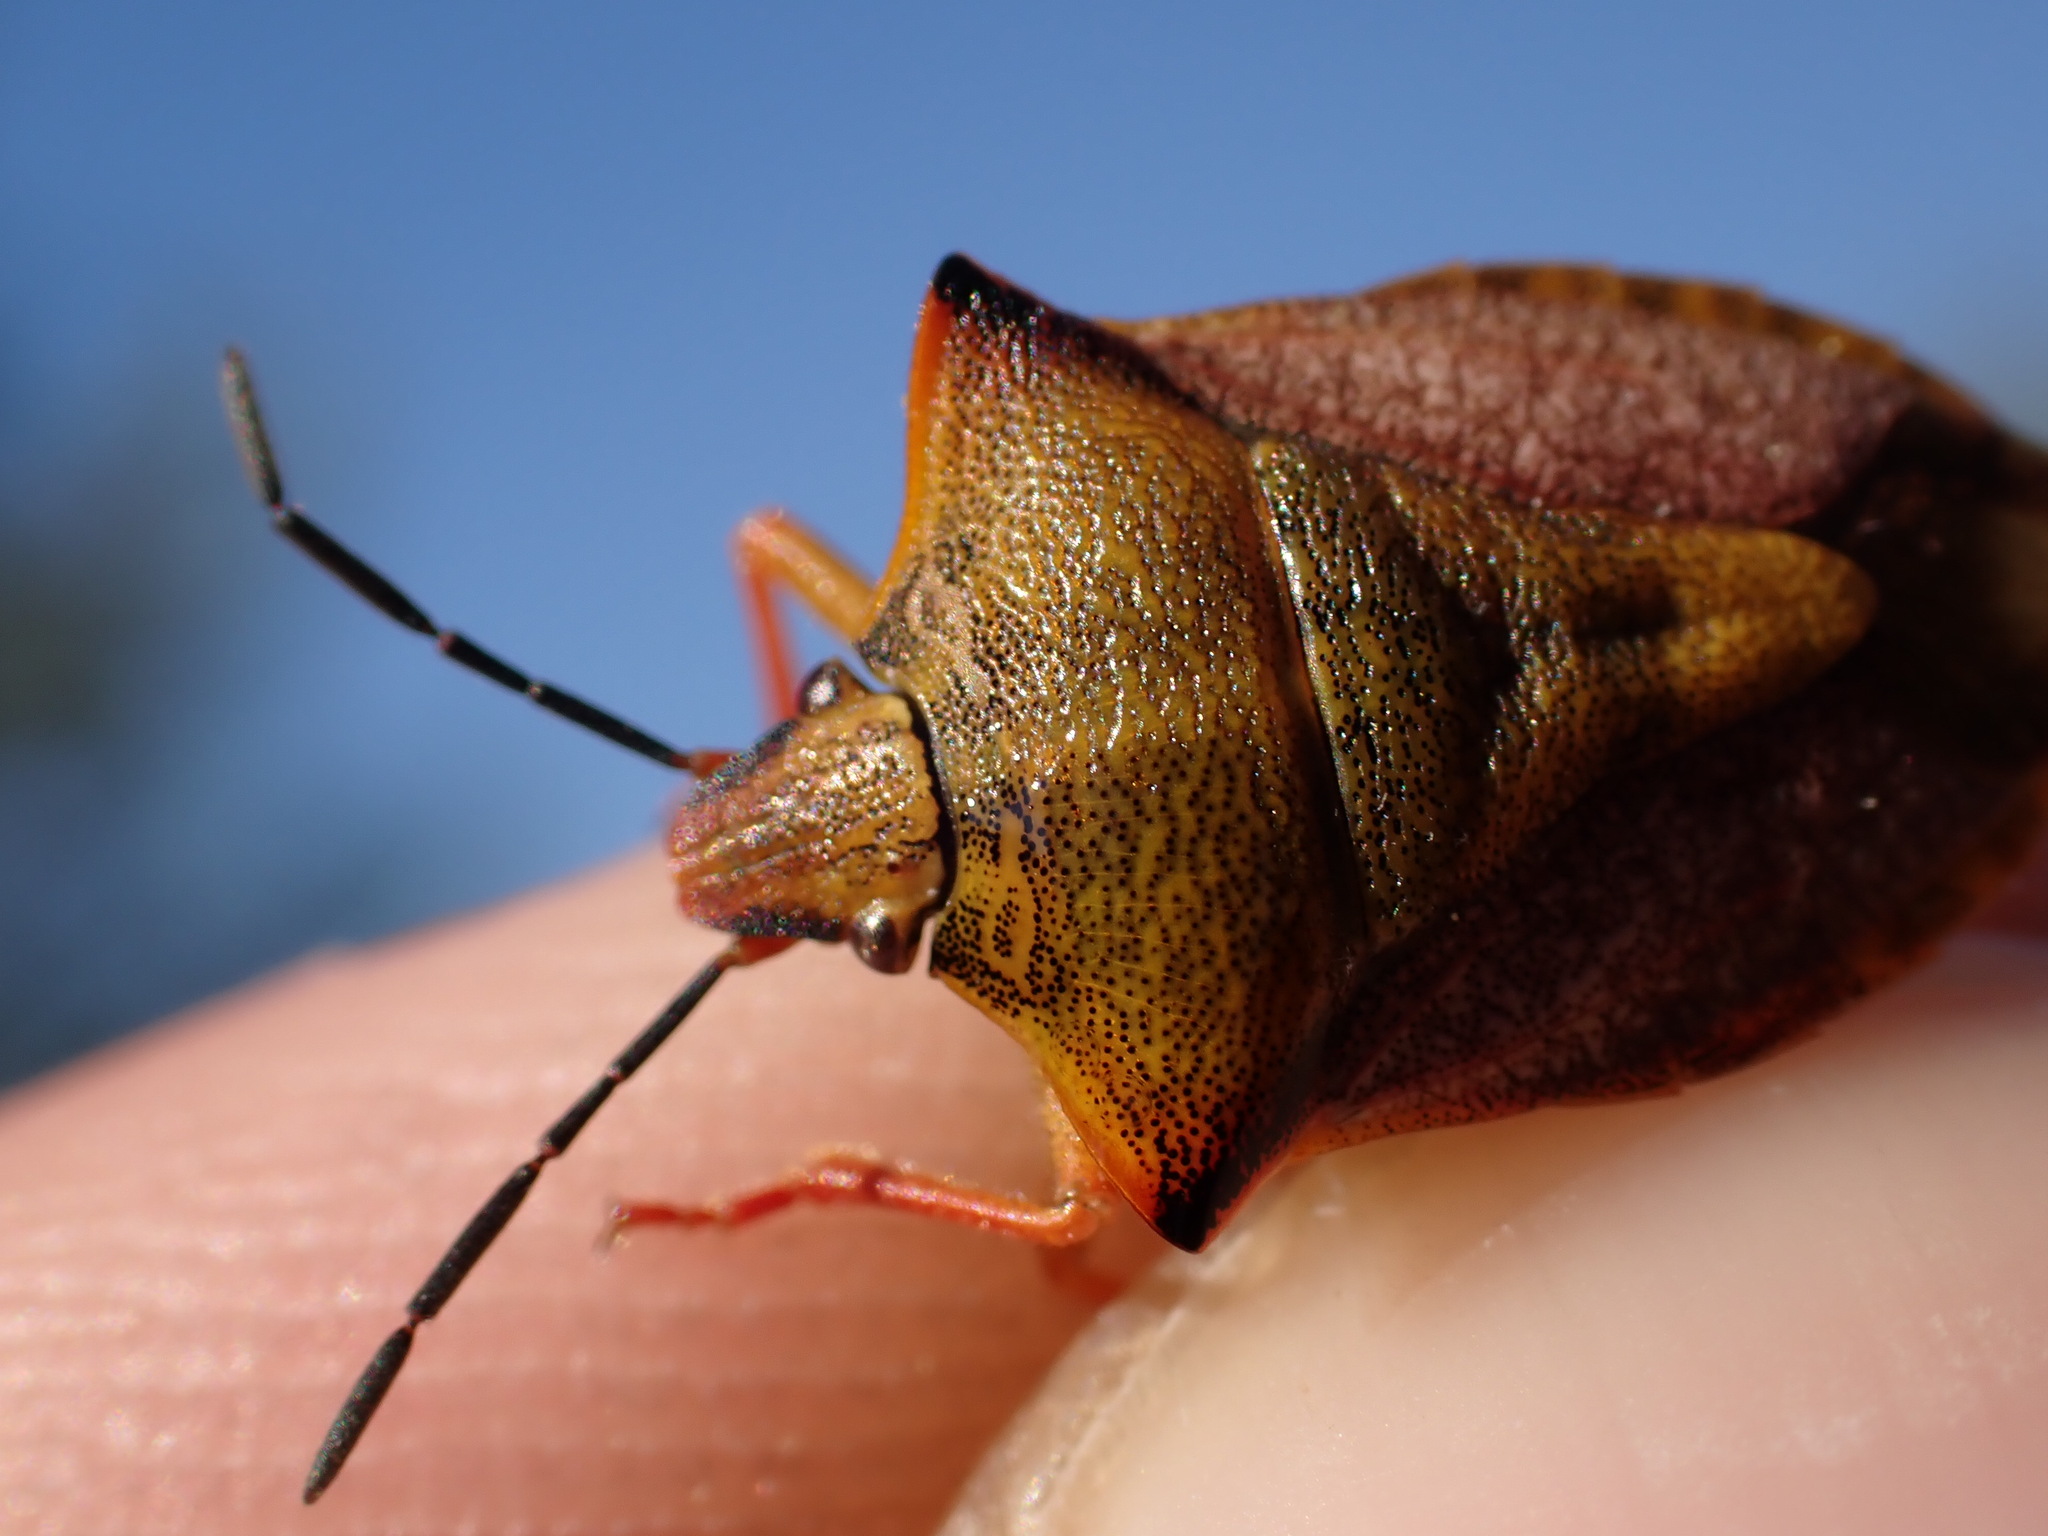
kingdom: Animalia
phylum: Arthropoda
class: Insecta
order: Hemiptera
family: Pentatomidae
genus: Carpocoris
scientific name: Carpocoris mediterraneus
